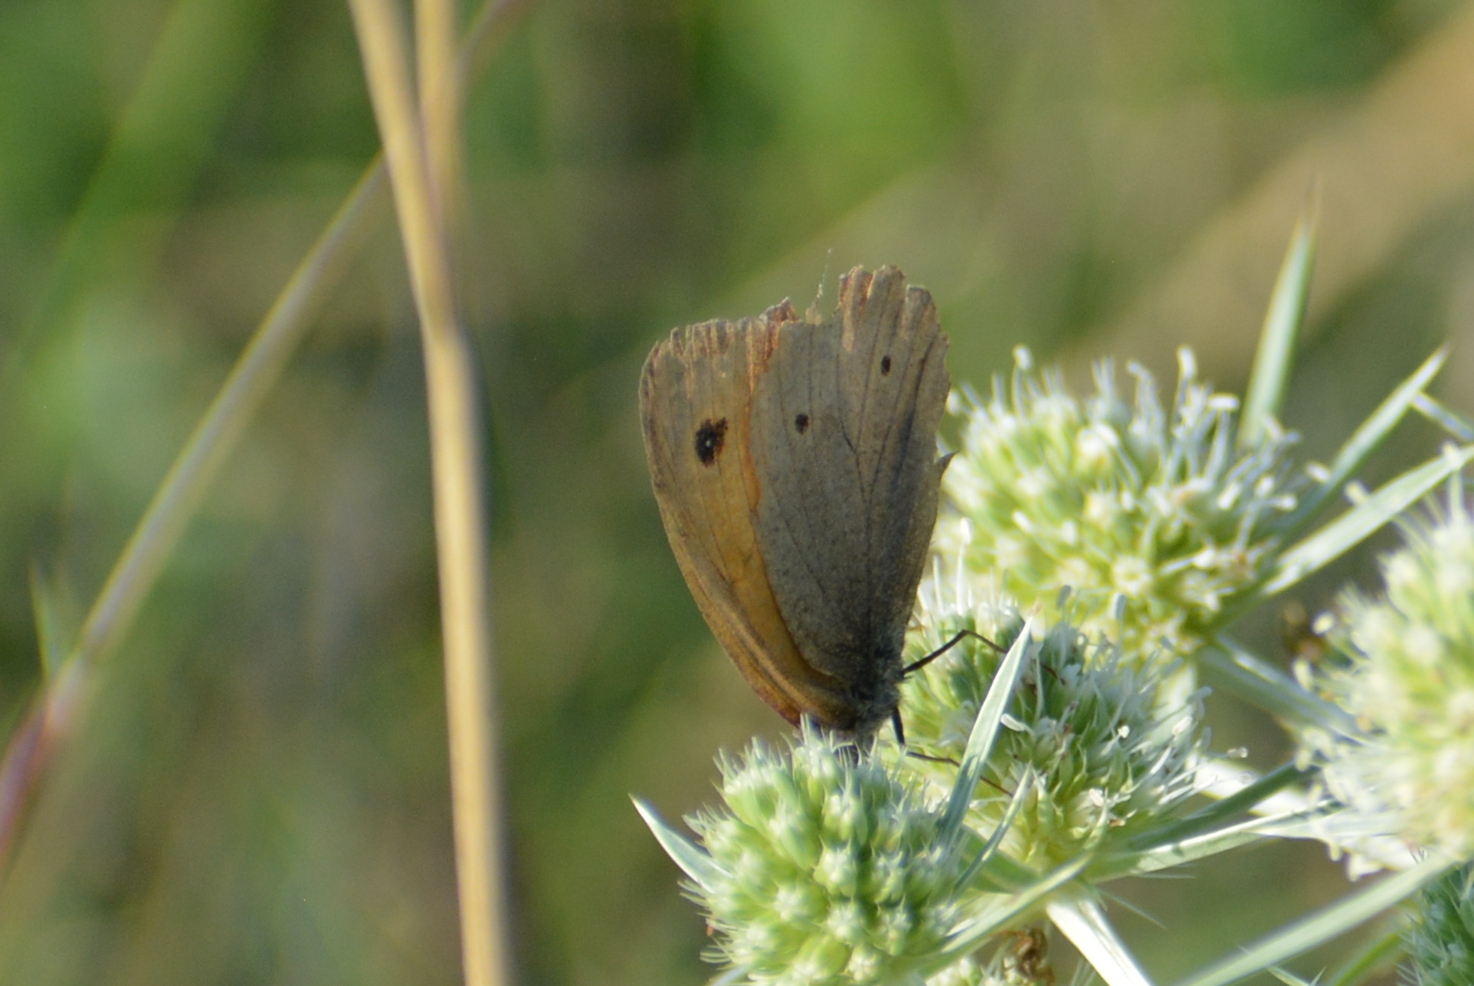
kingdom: Animalia
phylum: Arthropoda
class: Insecta
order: Lepidoptera
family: Nymphalidae
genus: Maniola
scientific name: Maniola jurtina
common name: Meadow brown
